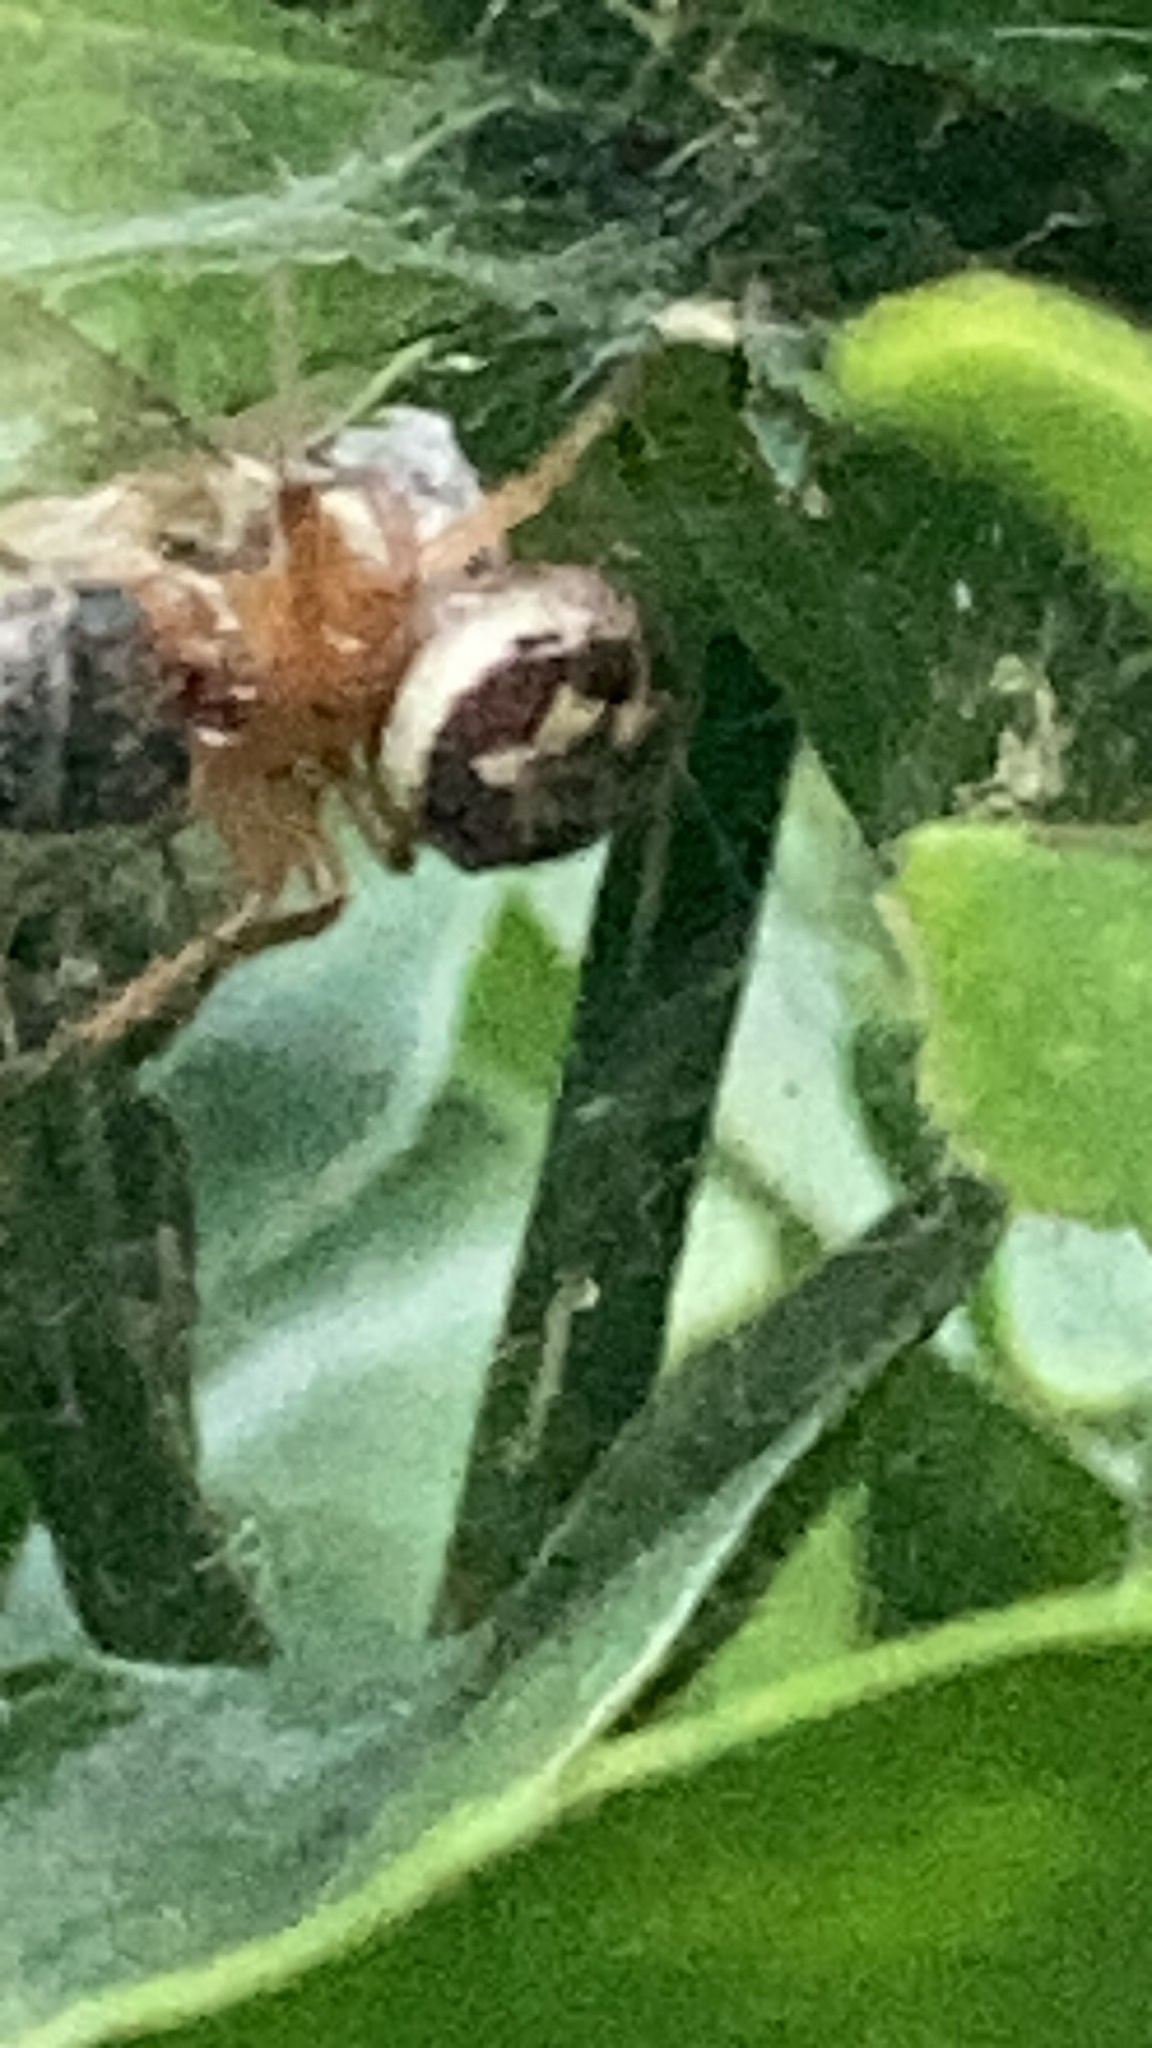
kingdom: Animalia
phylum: Arthropoda
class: Arachnida
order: Araneae
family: Theridiidae
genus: Steatoda
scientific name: Steatoda nobilis
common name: Cobweb weaver
